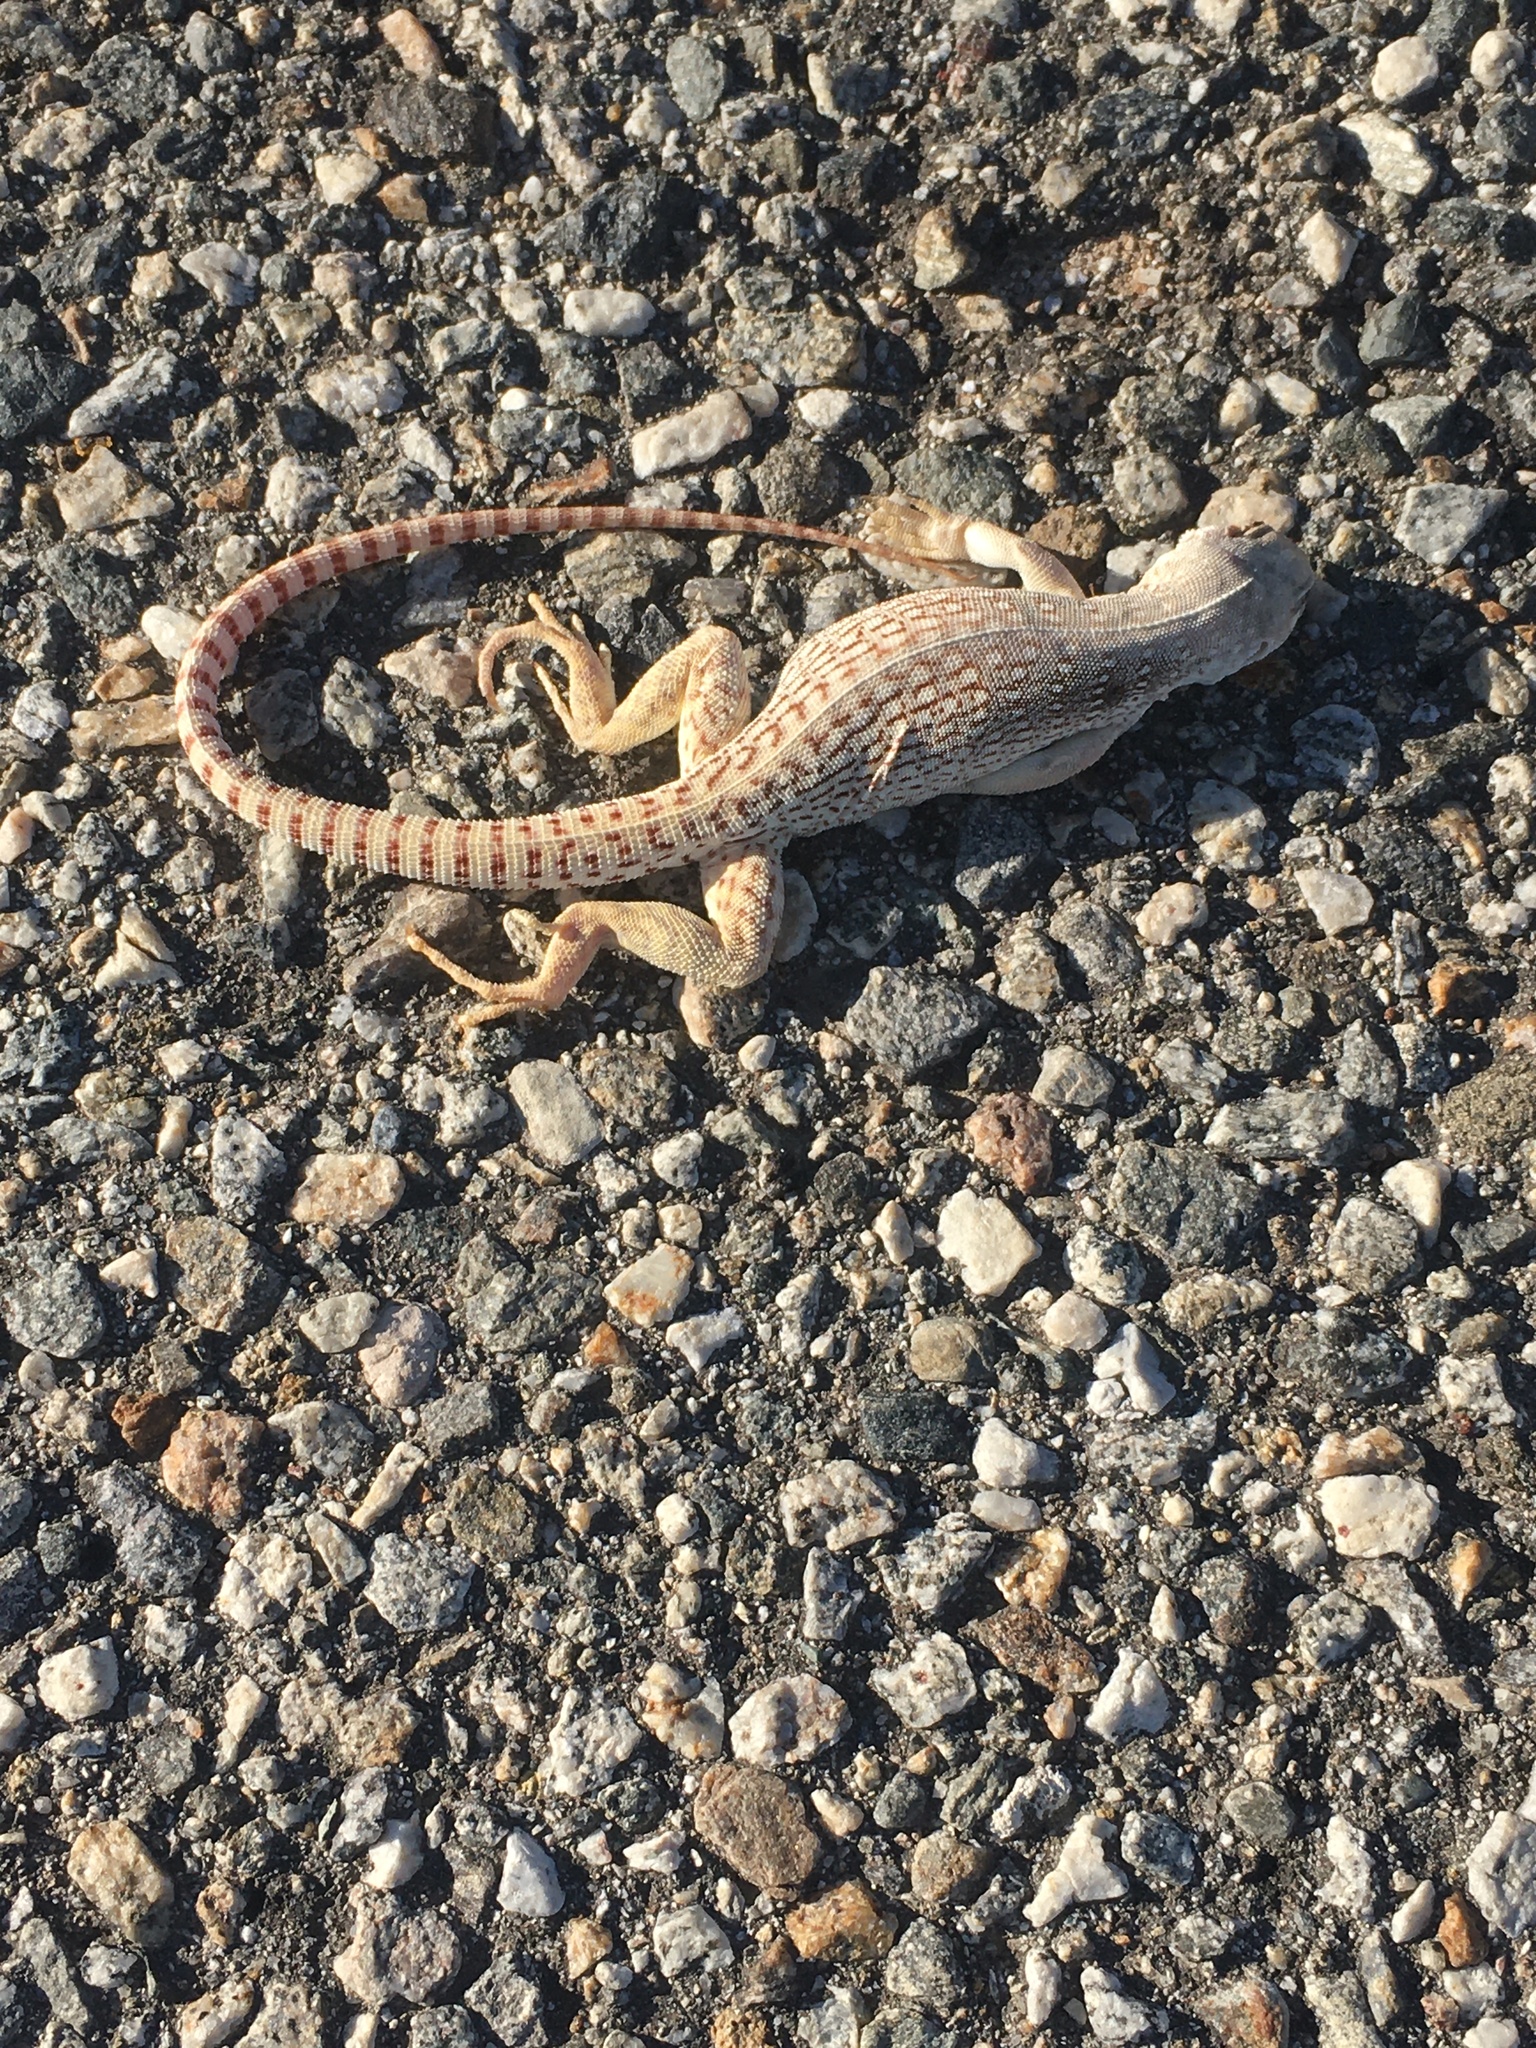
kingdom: Animalia
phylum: Chordata
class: Squamata
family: Iguanidae
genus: Dipsosaurus
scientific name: Dipsosaurus dorsalis
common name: Desert iguana
